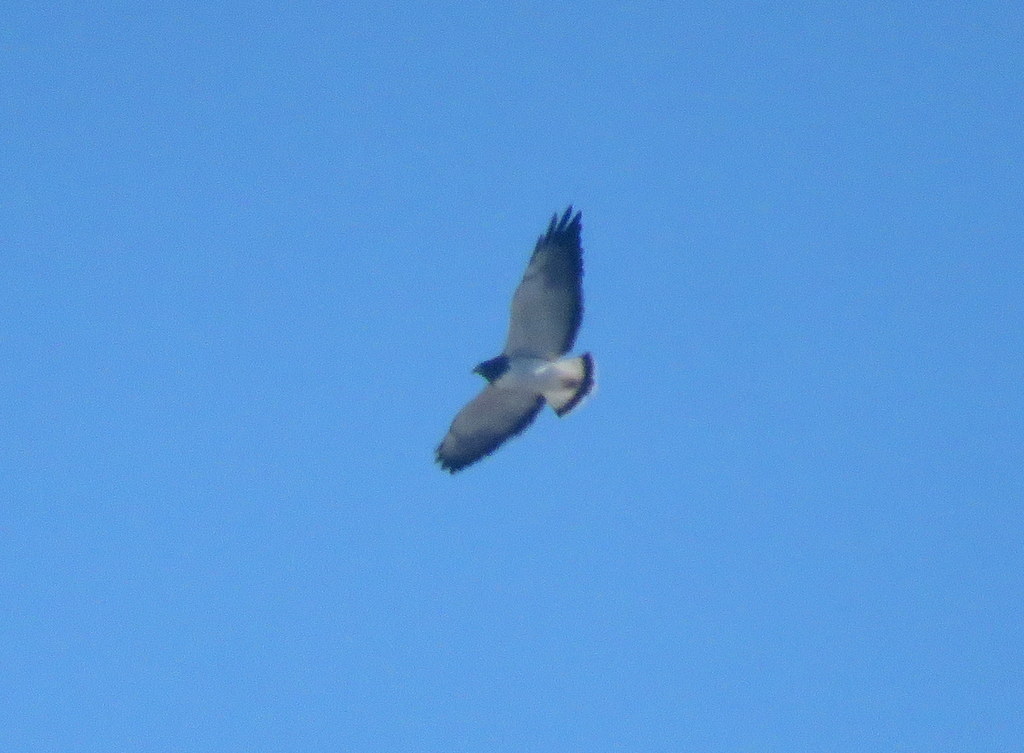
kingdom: Animalia
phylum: Chordata
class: Aves
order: Accipitriformes
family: Accipitridae
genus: Buteo
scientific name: Buteo albicaudatus
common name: White-tailed hawk
